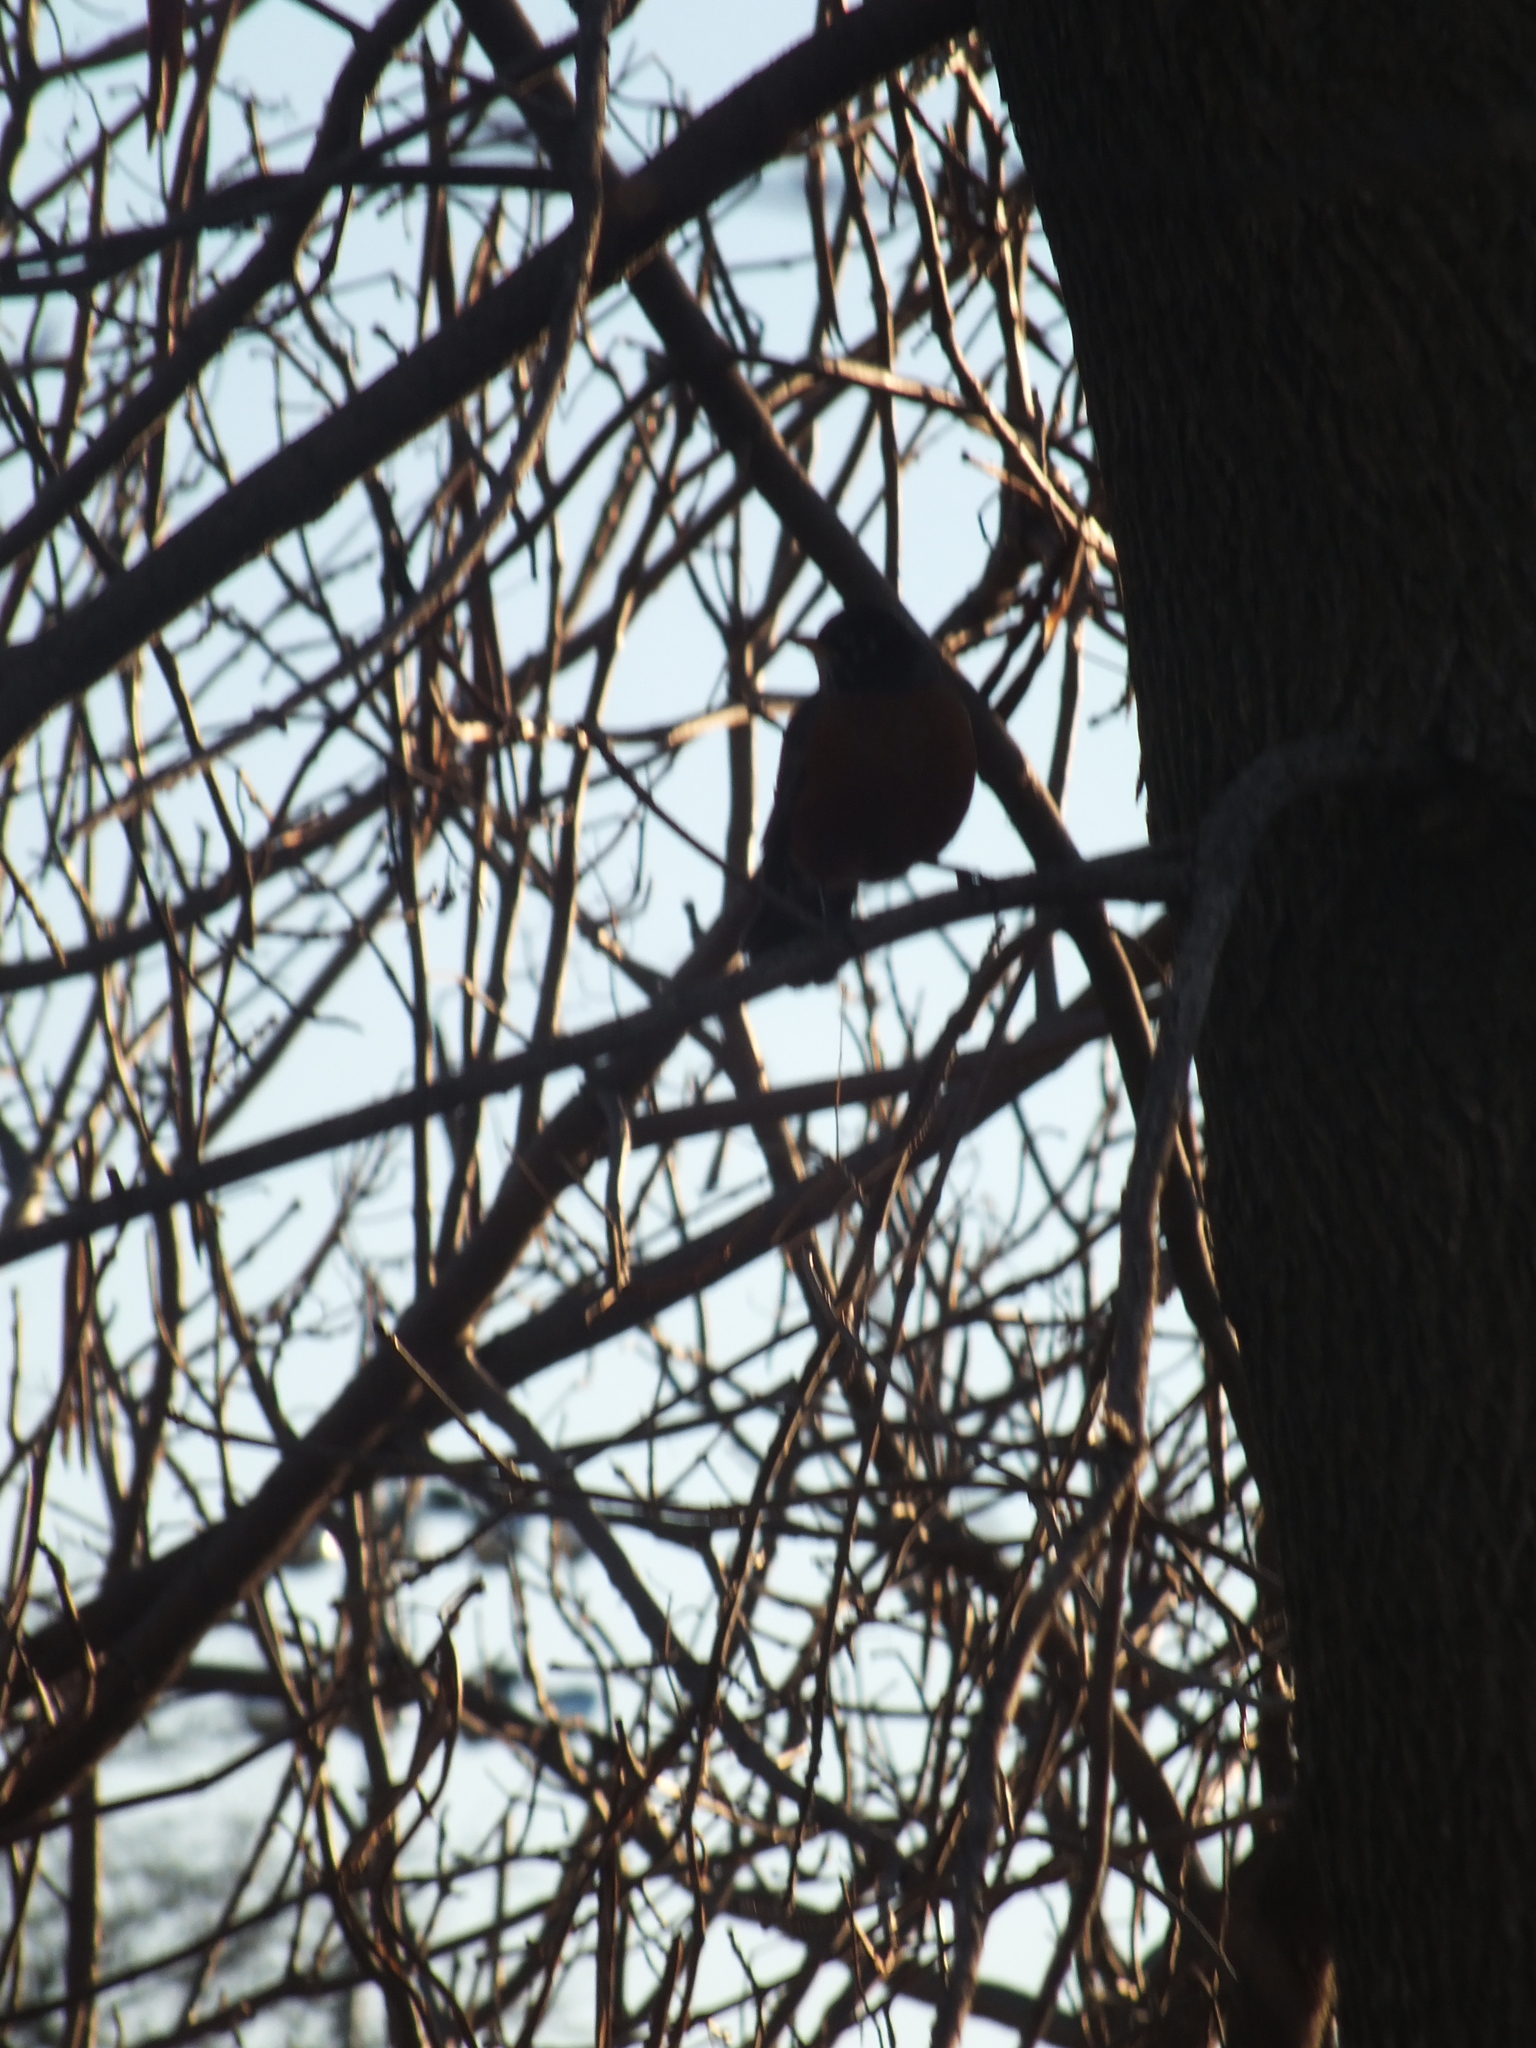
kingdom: Animalia
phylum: Chordata
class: Aves
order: Passeriformes
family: Turdidae
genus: Turdus
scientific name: Turdus migratorius
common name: American robin
